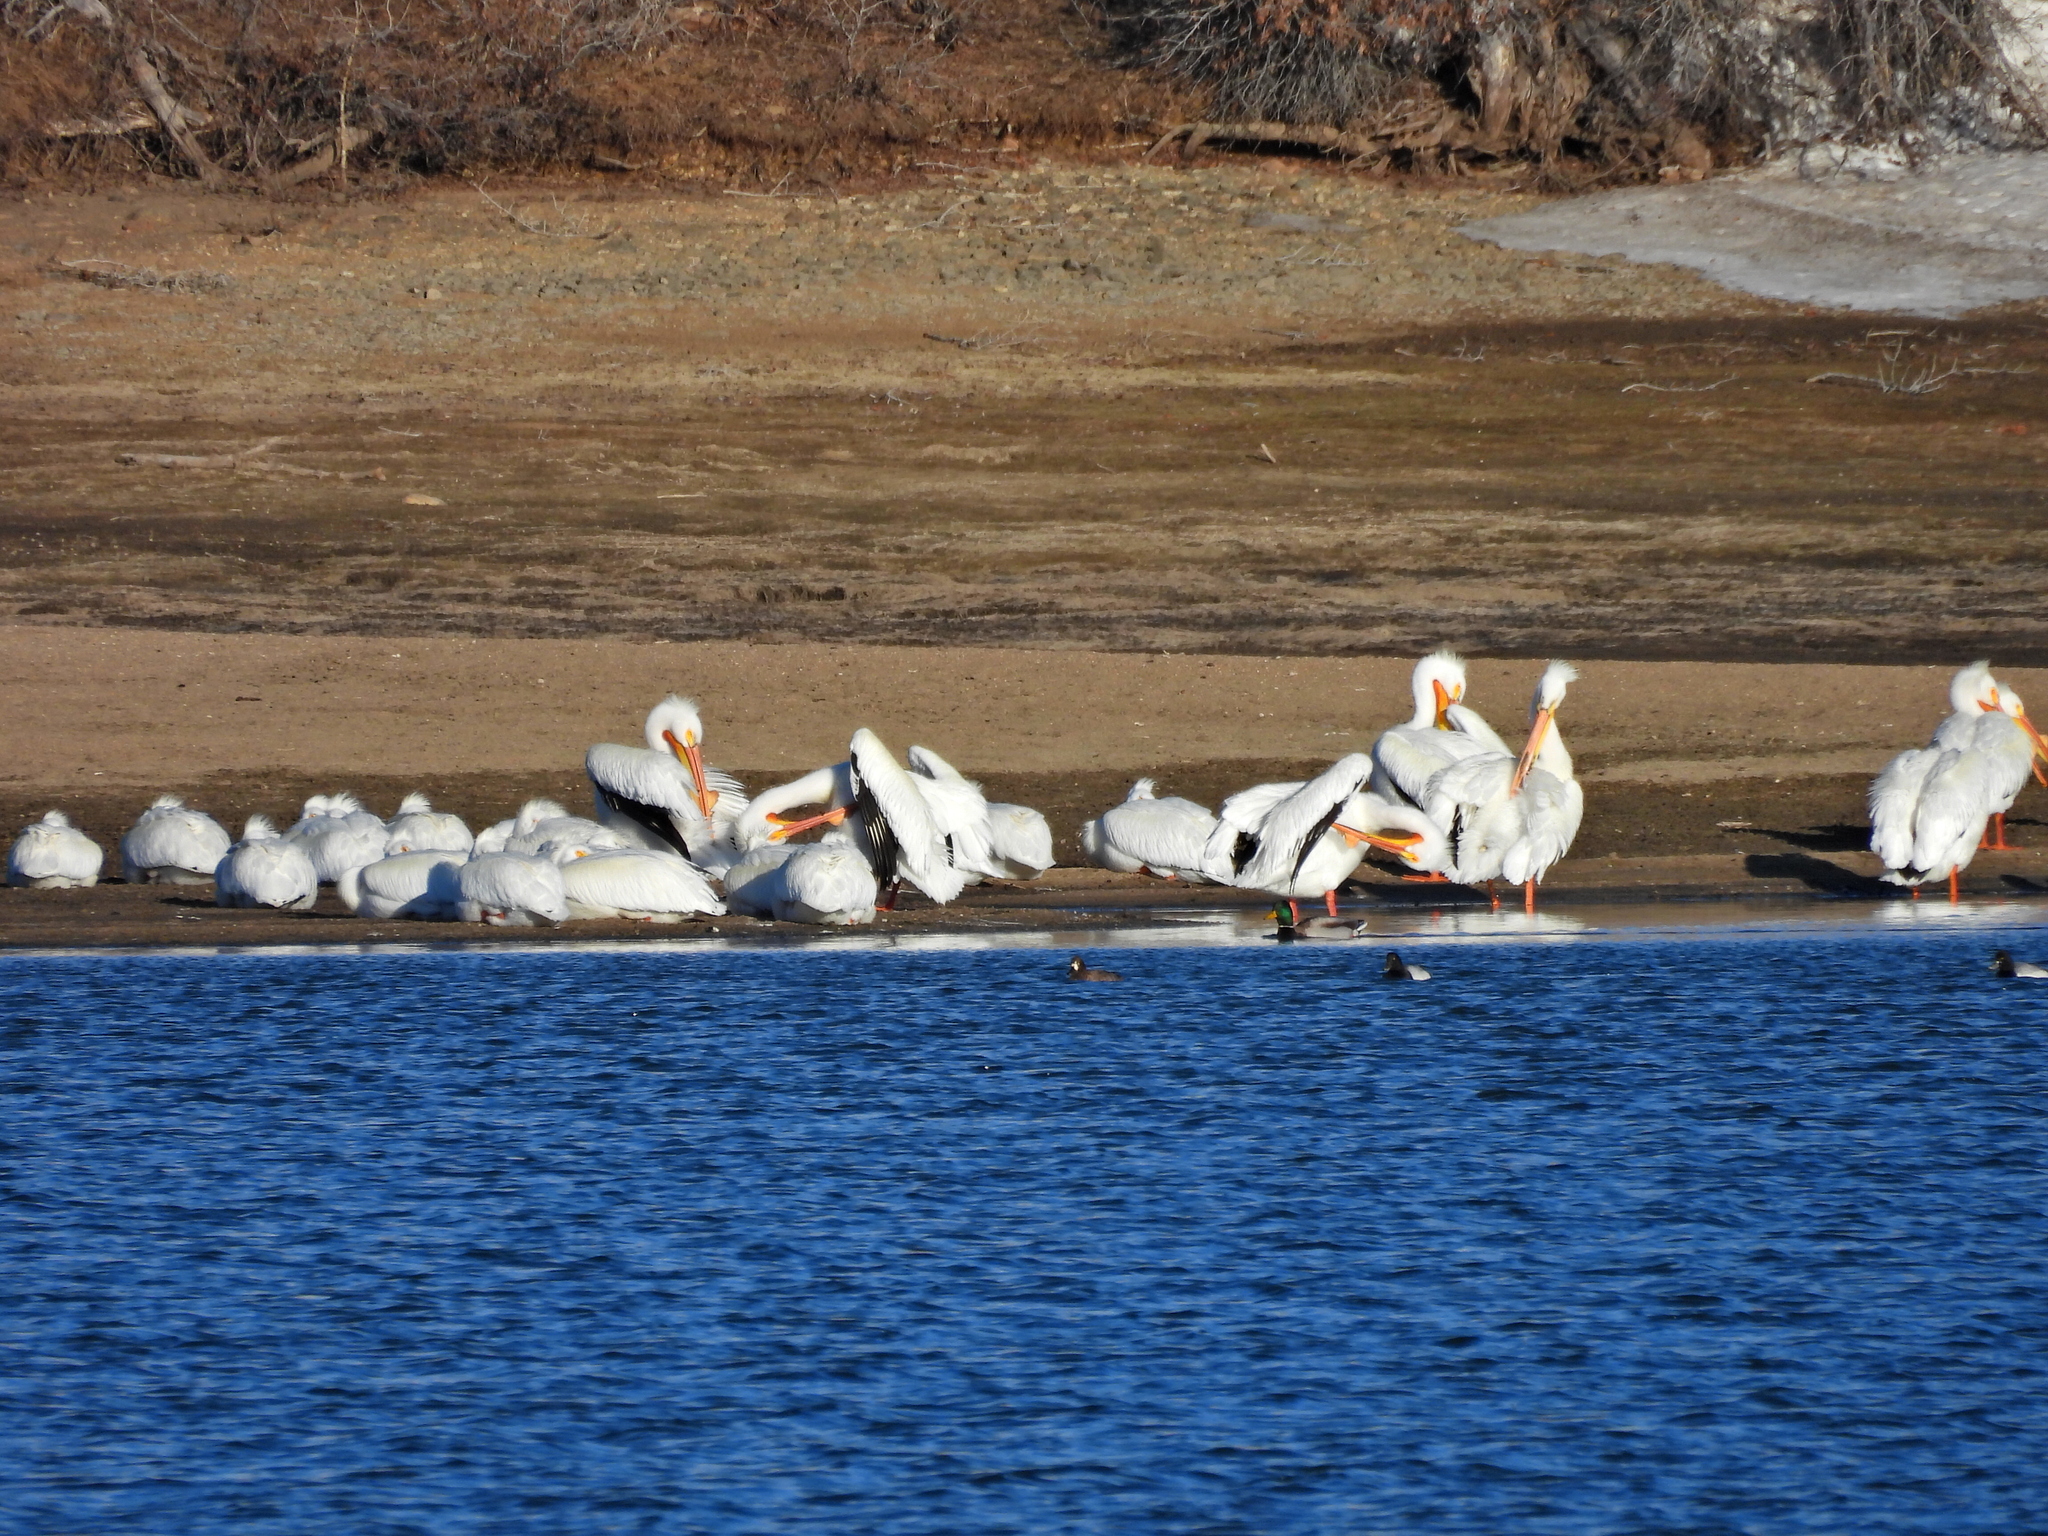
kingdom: Animalia
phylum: Chordata
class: Aves
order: Pelecaniformes
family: Pelecanidae
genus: Pelecanus
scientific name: Pelecanus erythrorhynchos
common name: American white pelican
